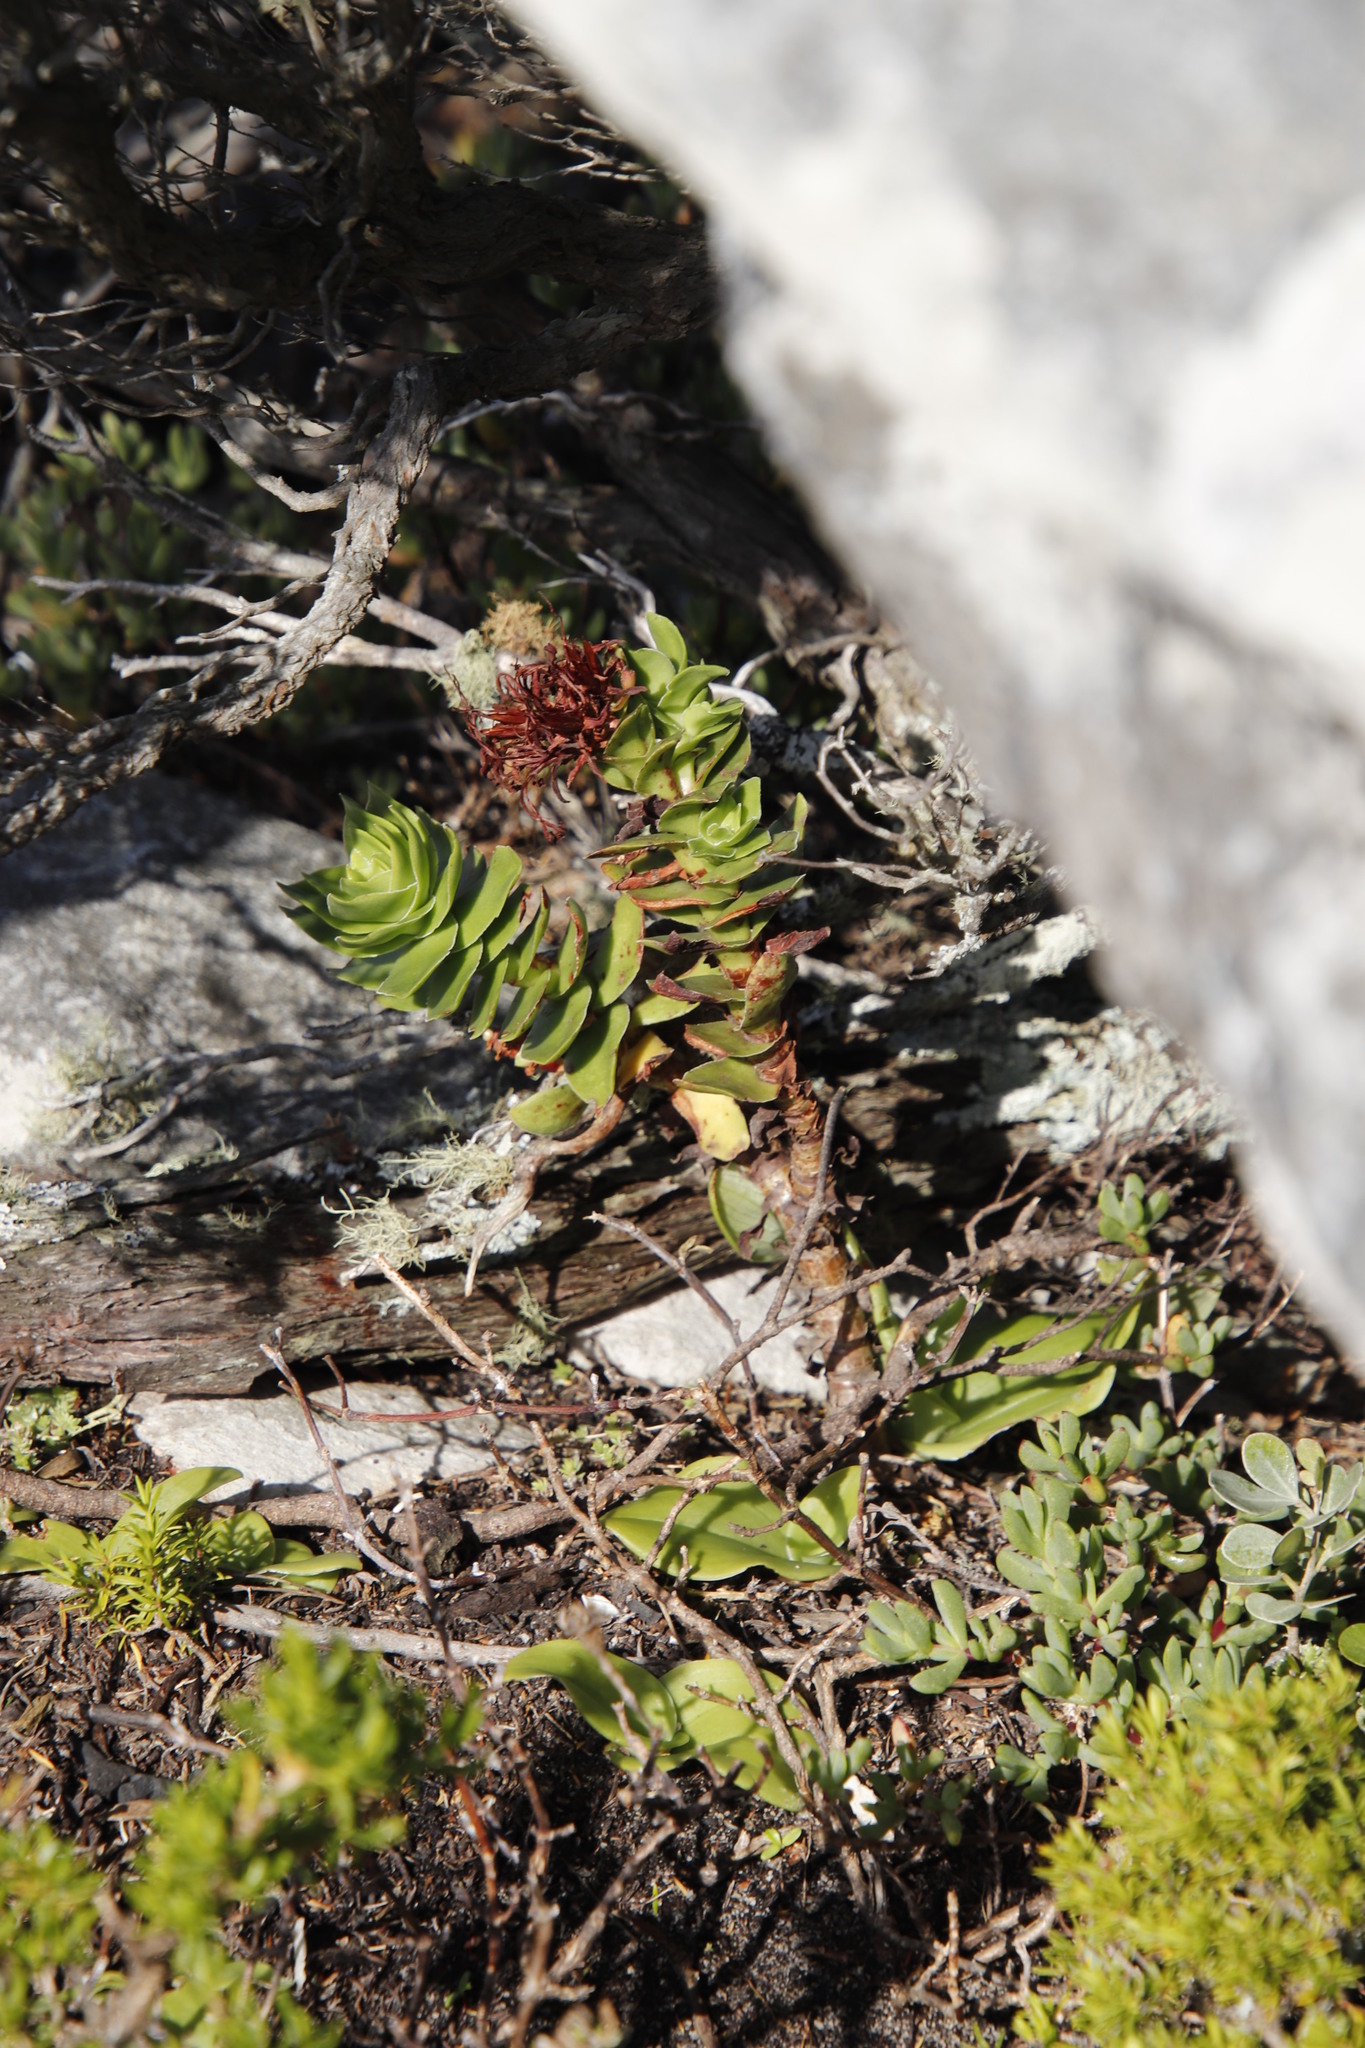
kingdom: Plantae
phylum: Tracheophyta
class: Magnoliopsida
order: Saxifragales
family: Crassulaceae
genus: Crassula
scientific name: Crassula coccinea
